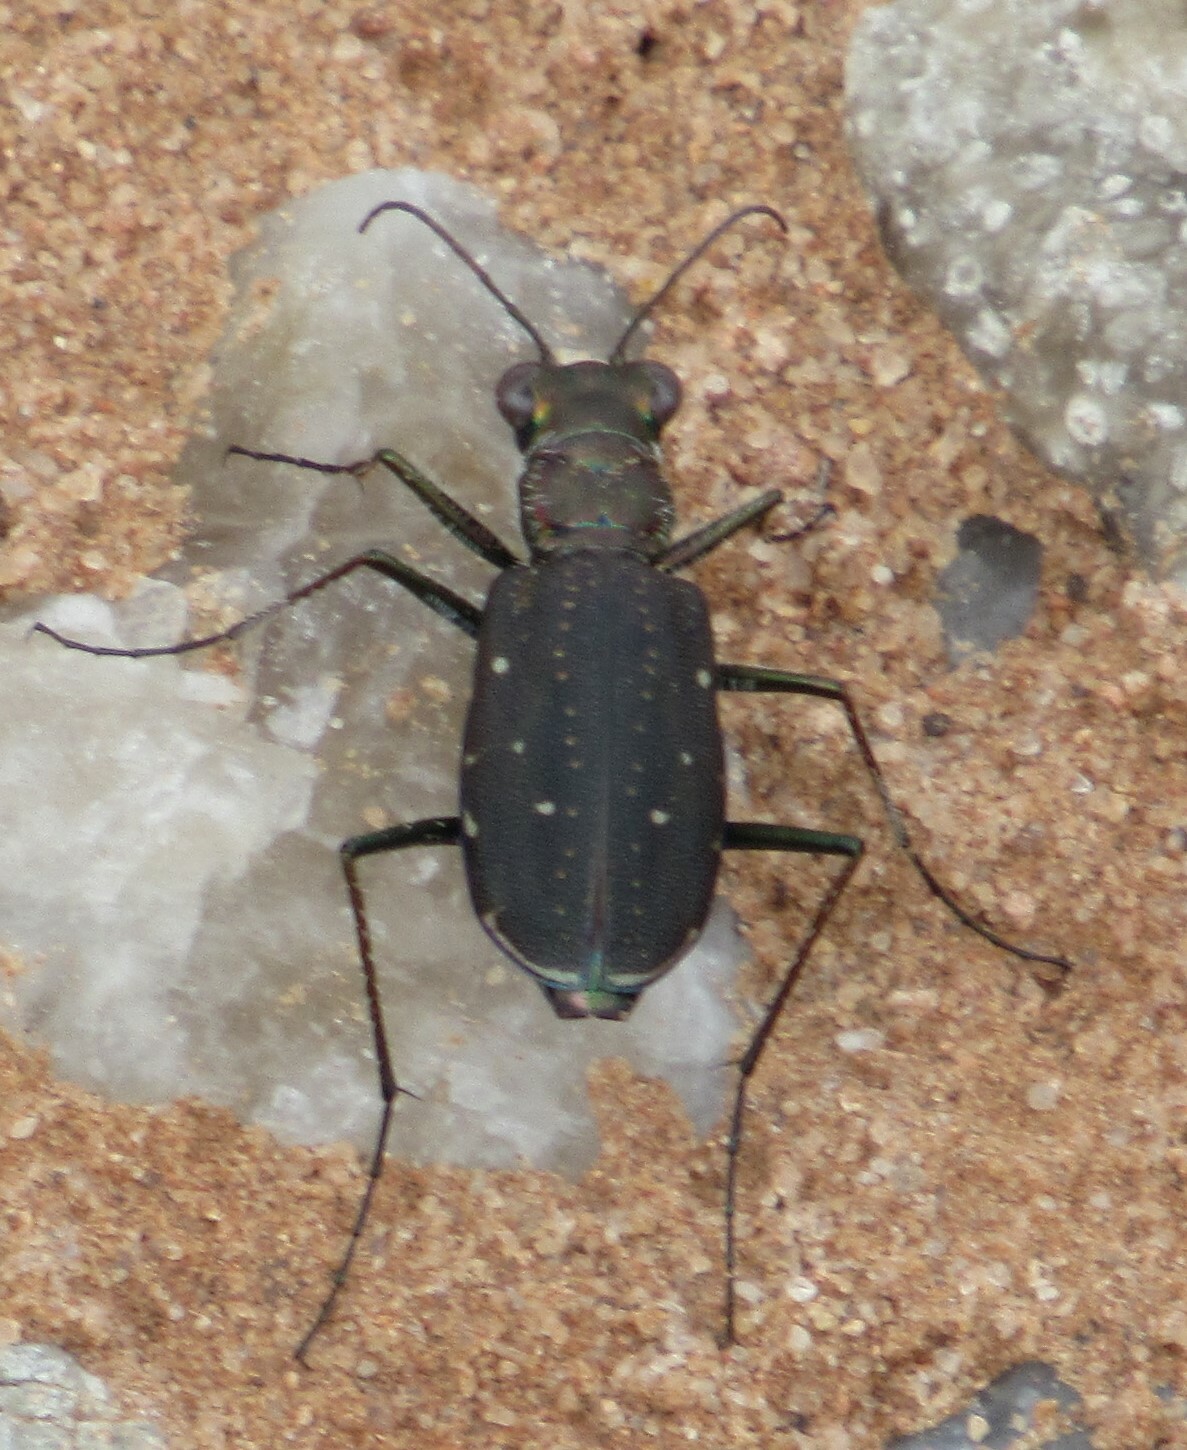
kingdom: Animalia
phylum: Arthropoda
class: Insecta
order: Coleoptera
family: Carabidae
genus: Cicindela
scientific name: Cicindela punctulata
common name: Punctured tiger beetle
